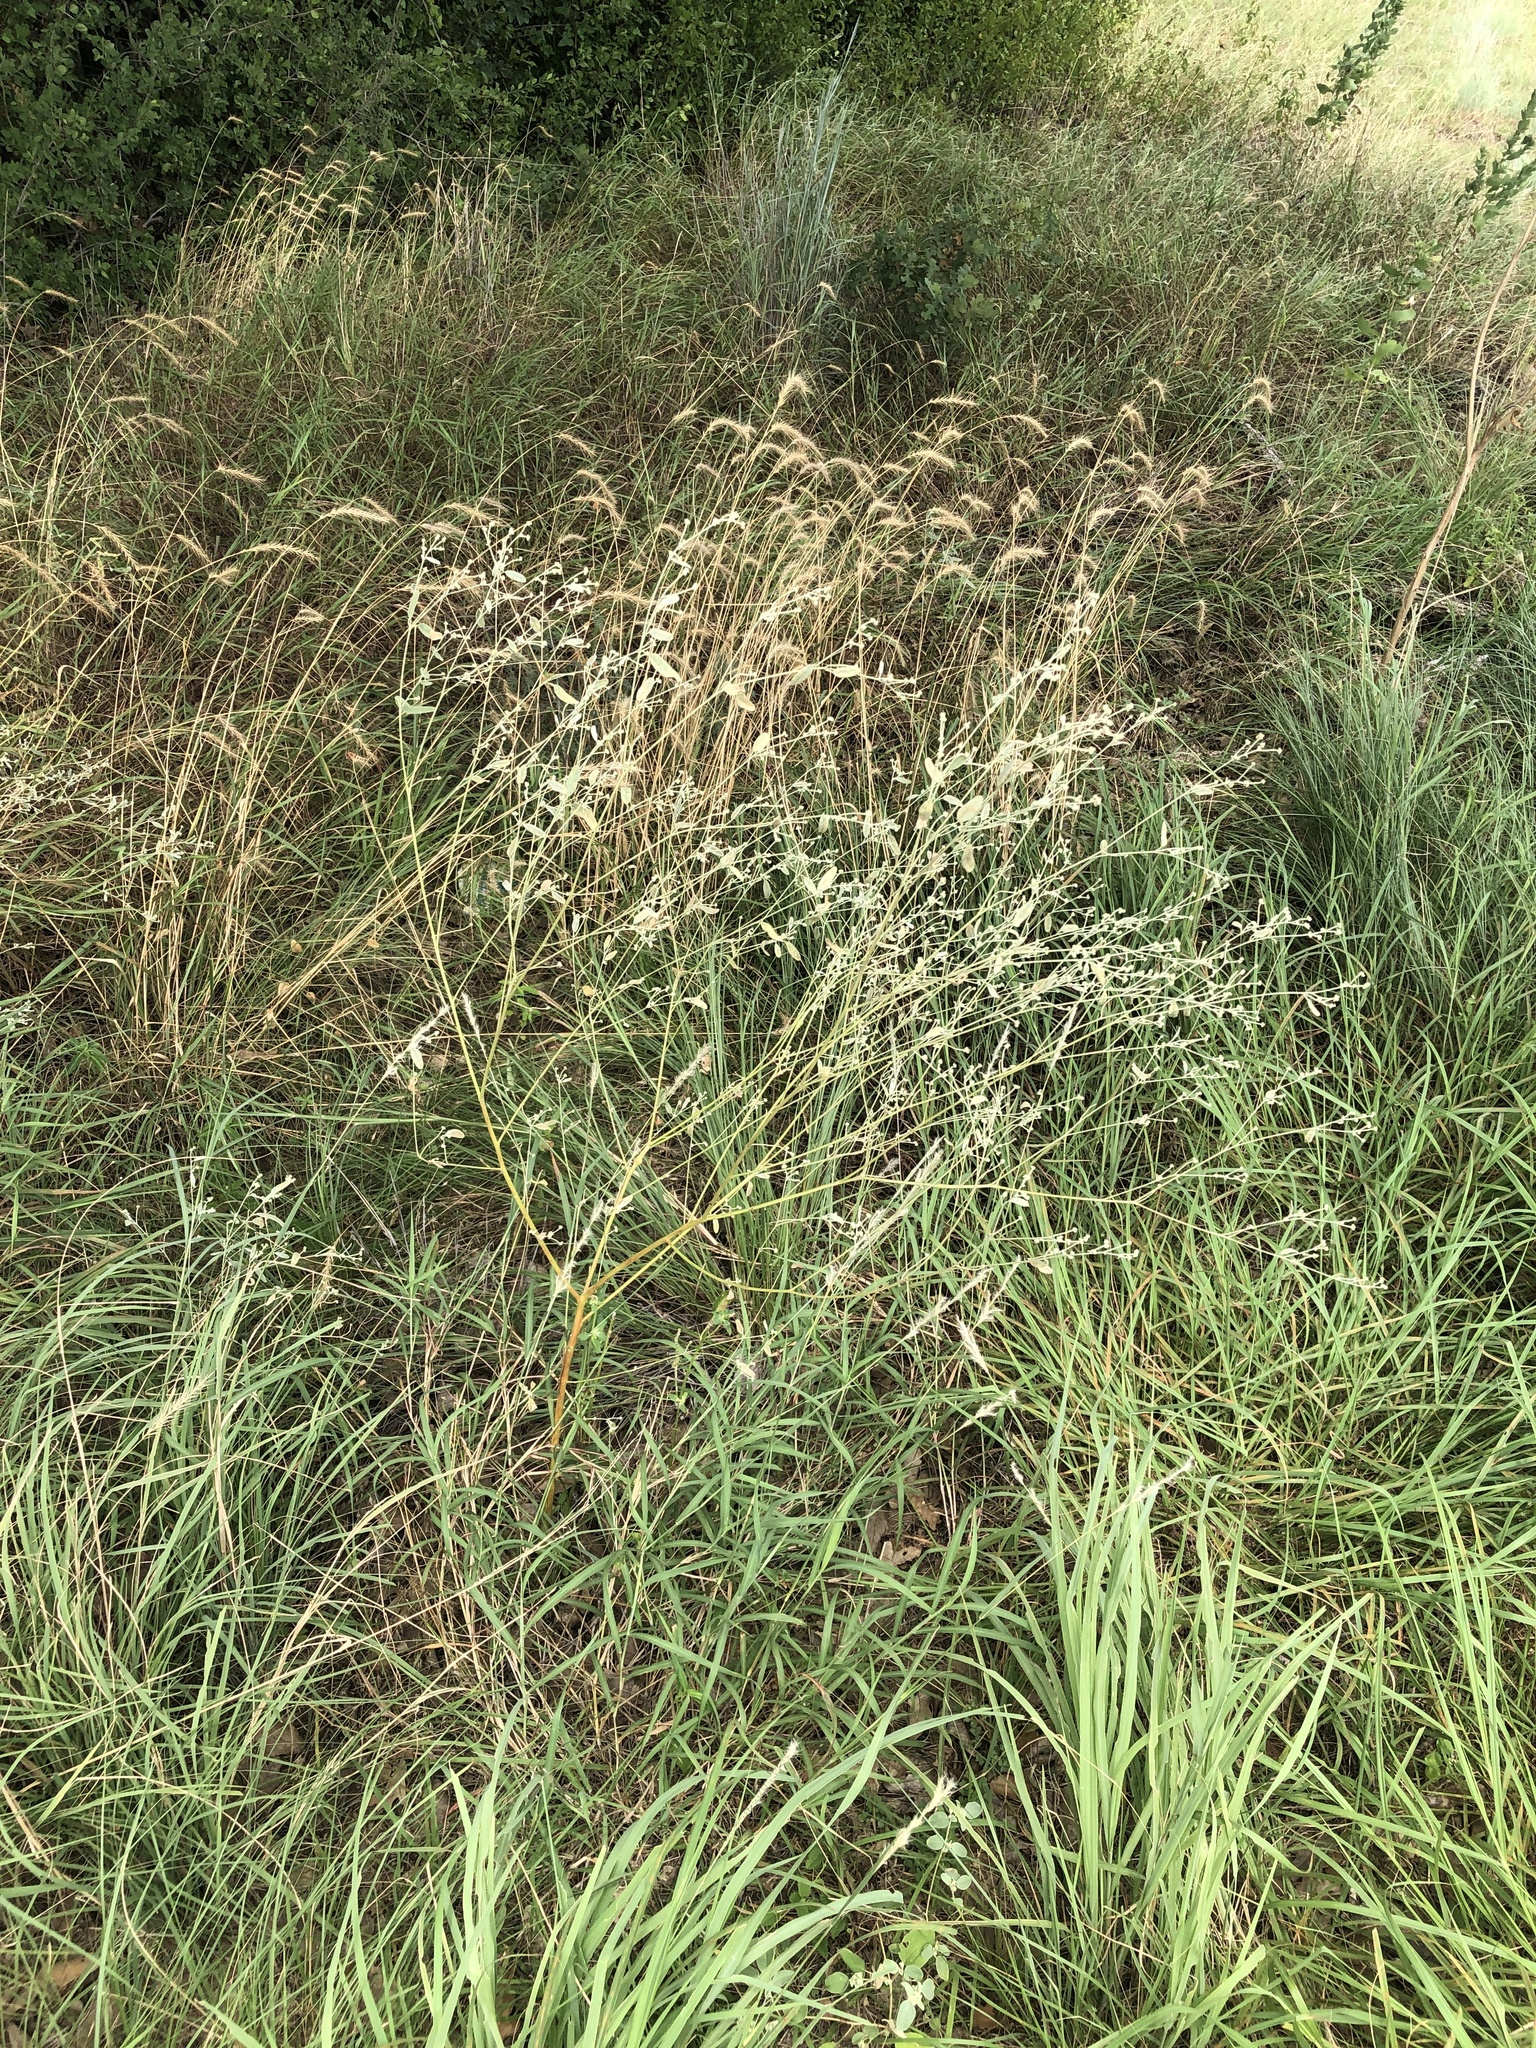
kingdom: Plantae
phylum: Tracheophyta
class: Magnoliopsida
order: Malpighiales
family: Euphorbiaceae
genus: Croton
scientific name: Croton texensis
